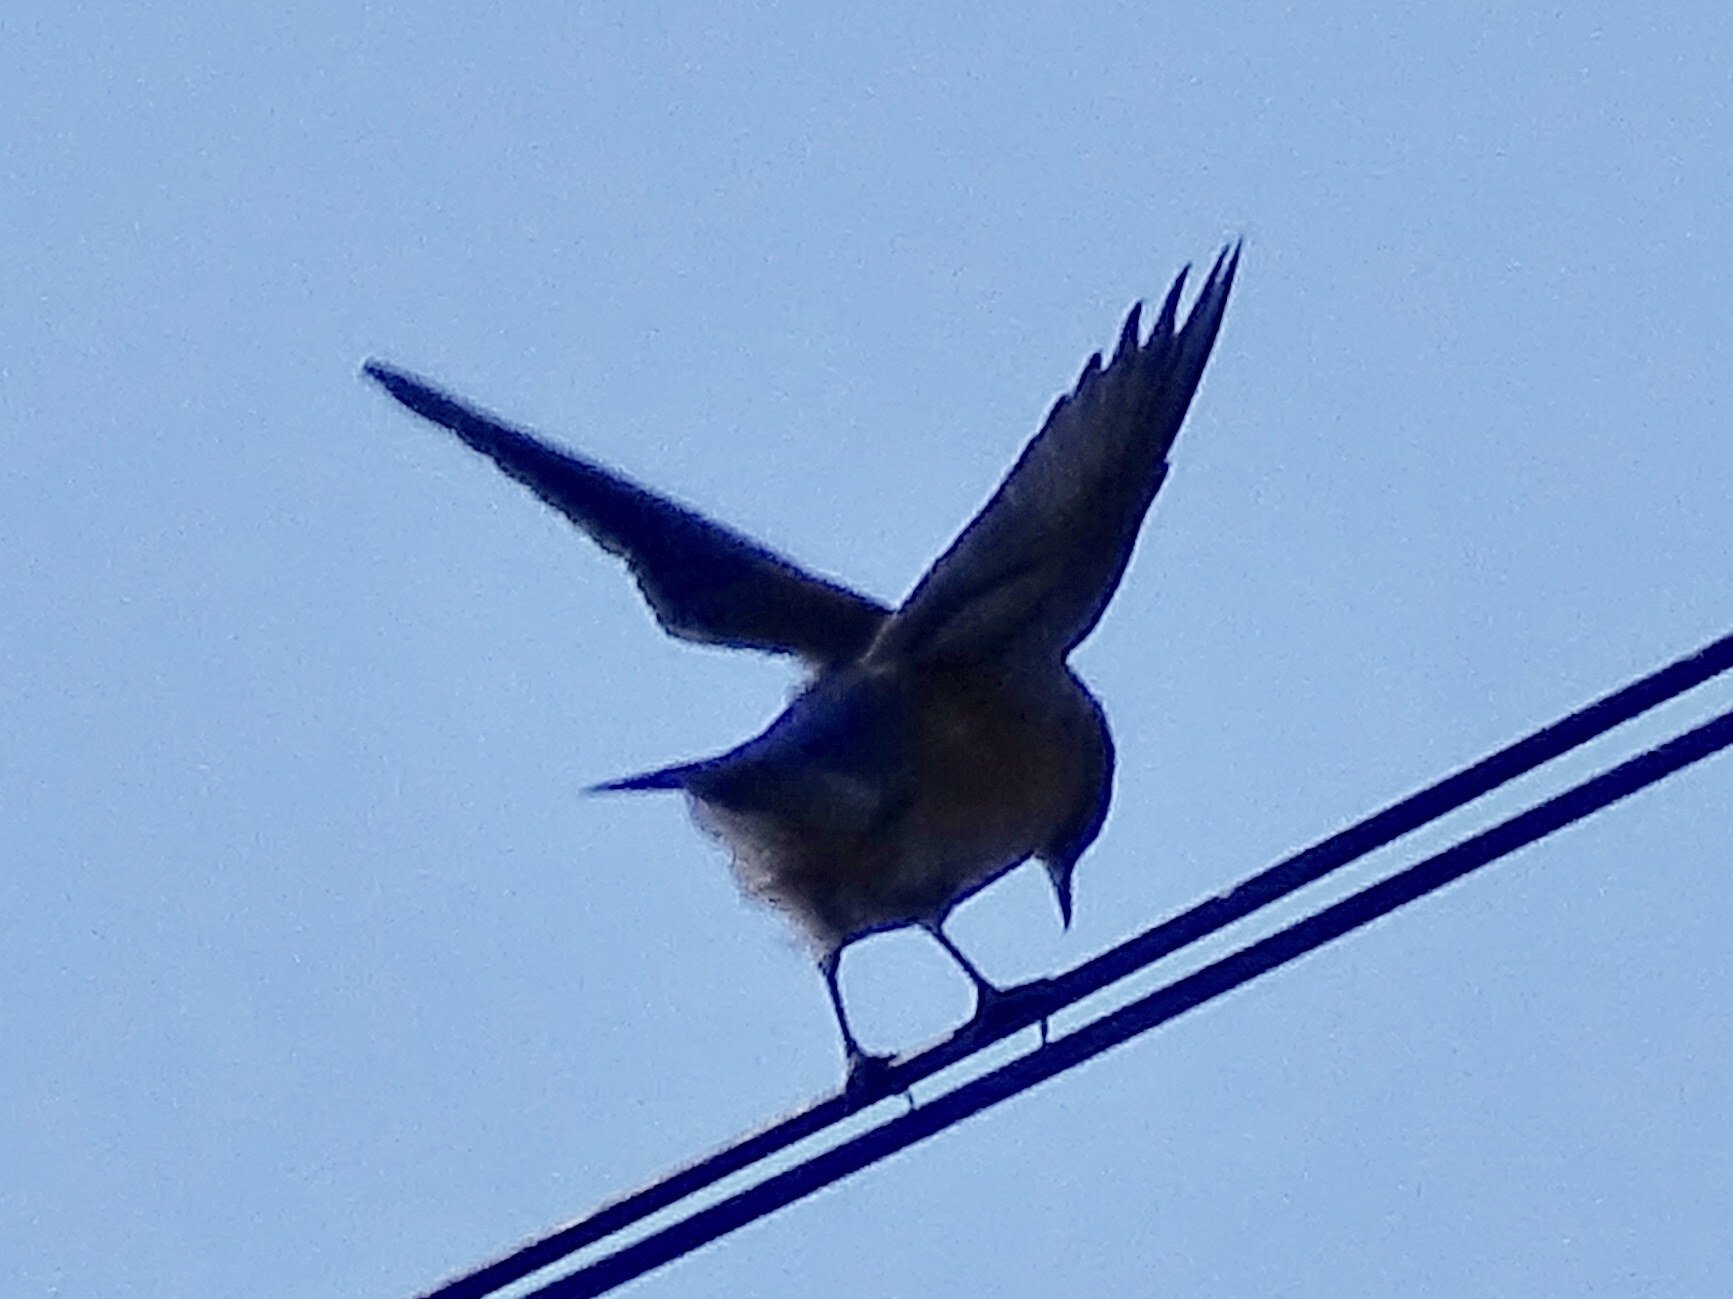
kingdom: Animalia
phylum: Chordata
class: Aves
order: Passeriformes
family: Turdidae
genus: Sialia
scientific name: Sialia mexicana
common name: Western bluebird
